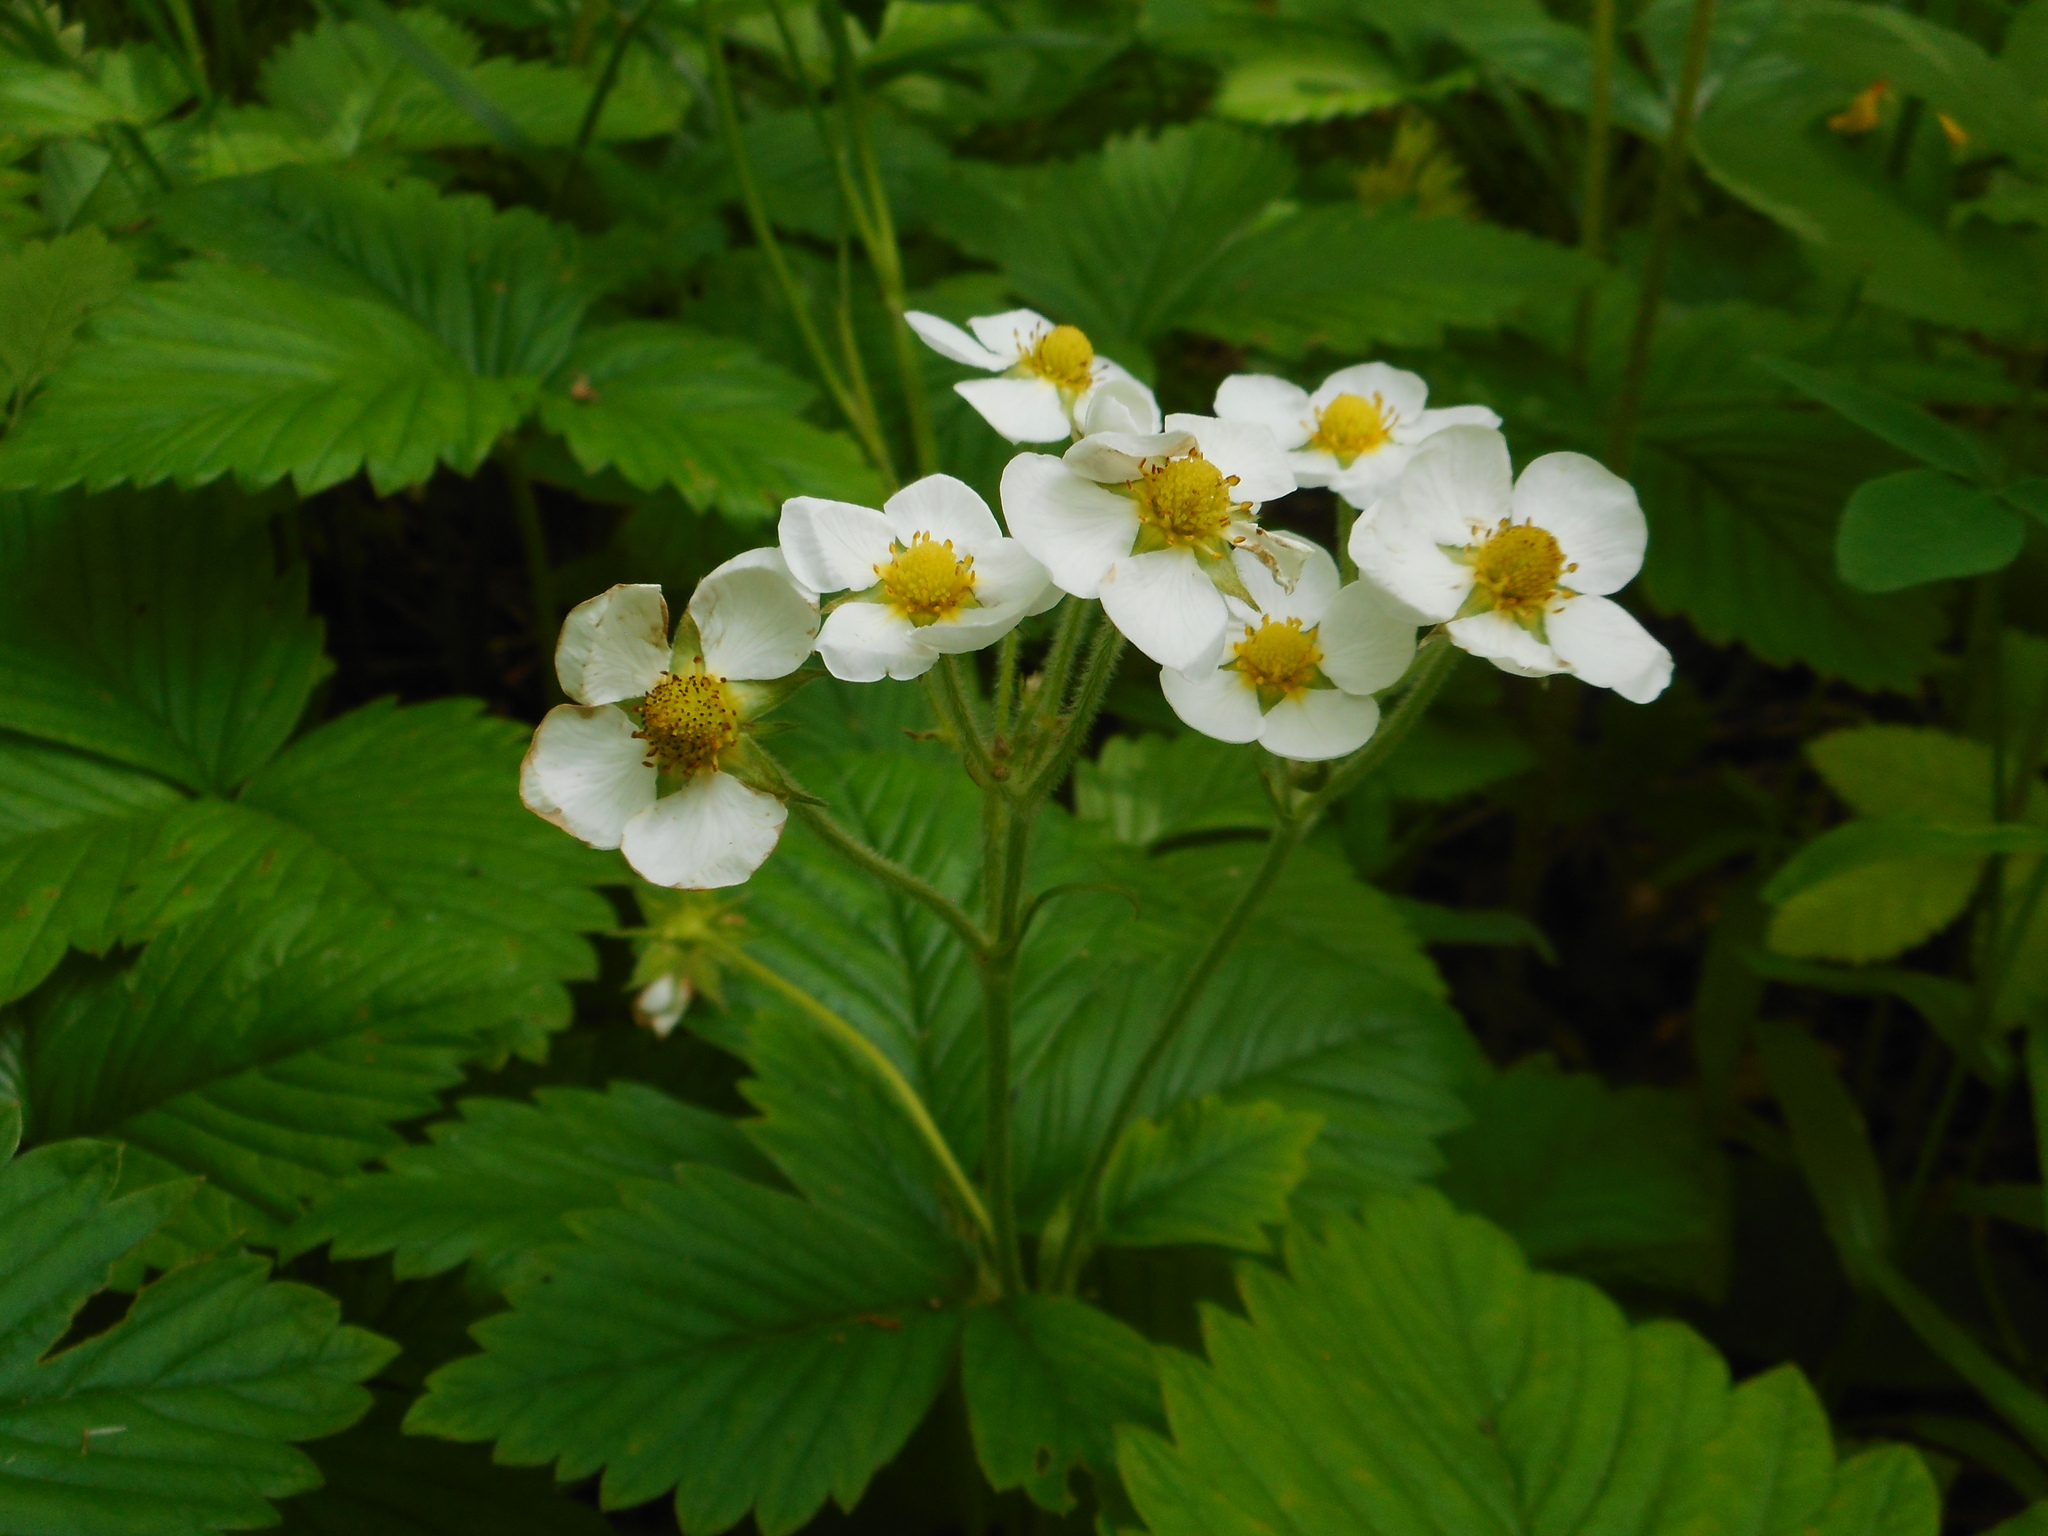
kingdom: Plantae
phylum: Tracheophyta
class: Magnoliopsida
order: Rosales
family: Rosaceae
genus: Fragaria
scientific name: Fragaria moschata
